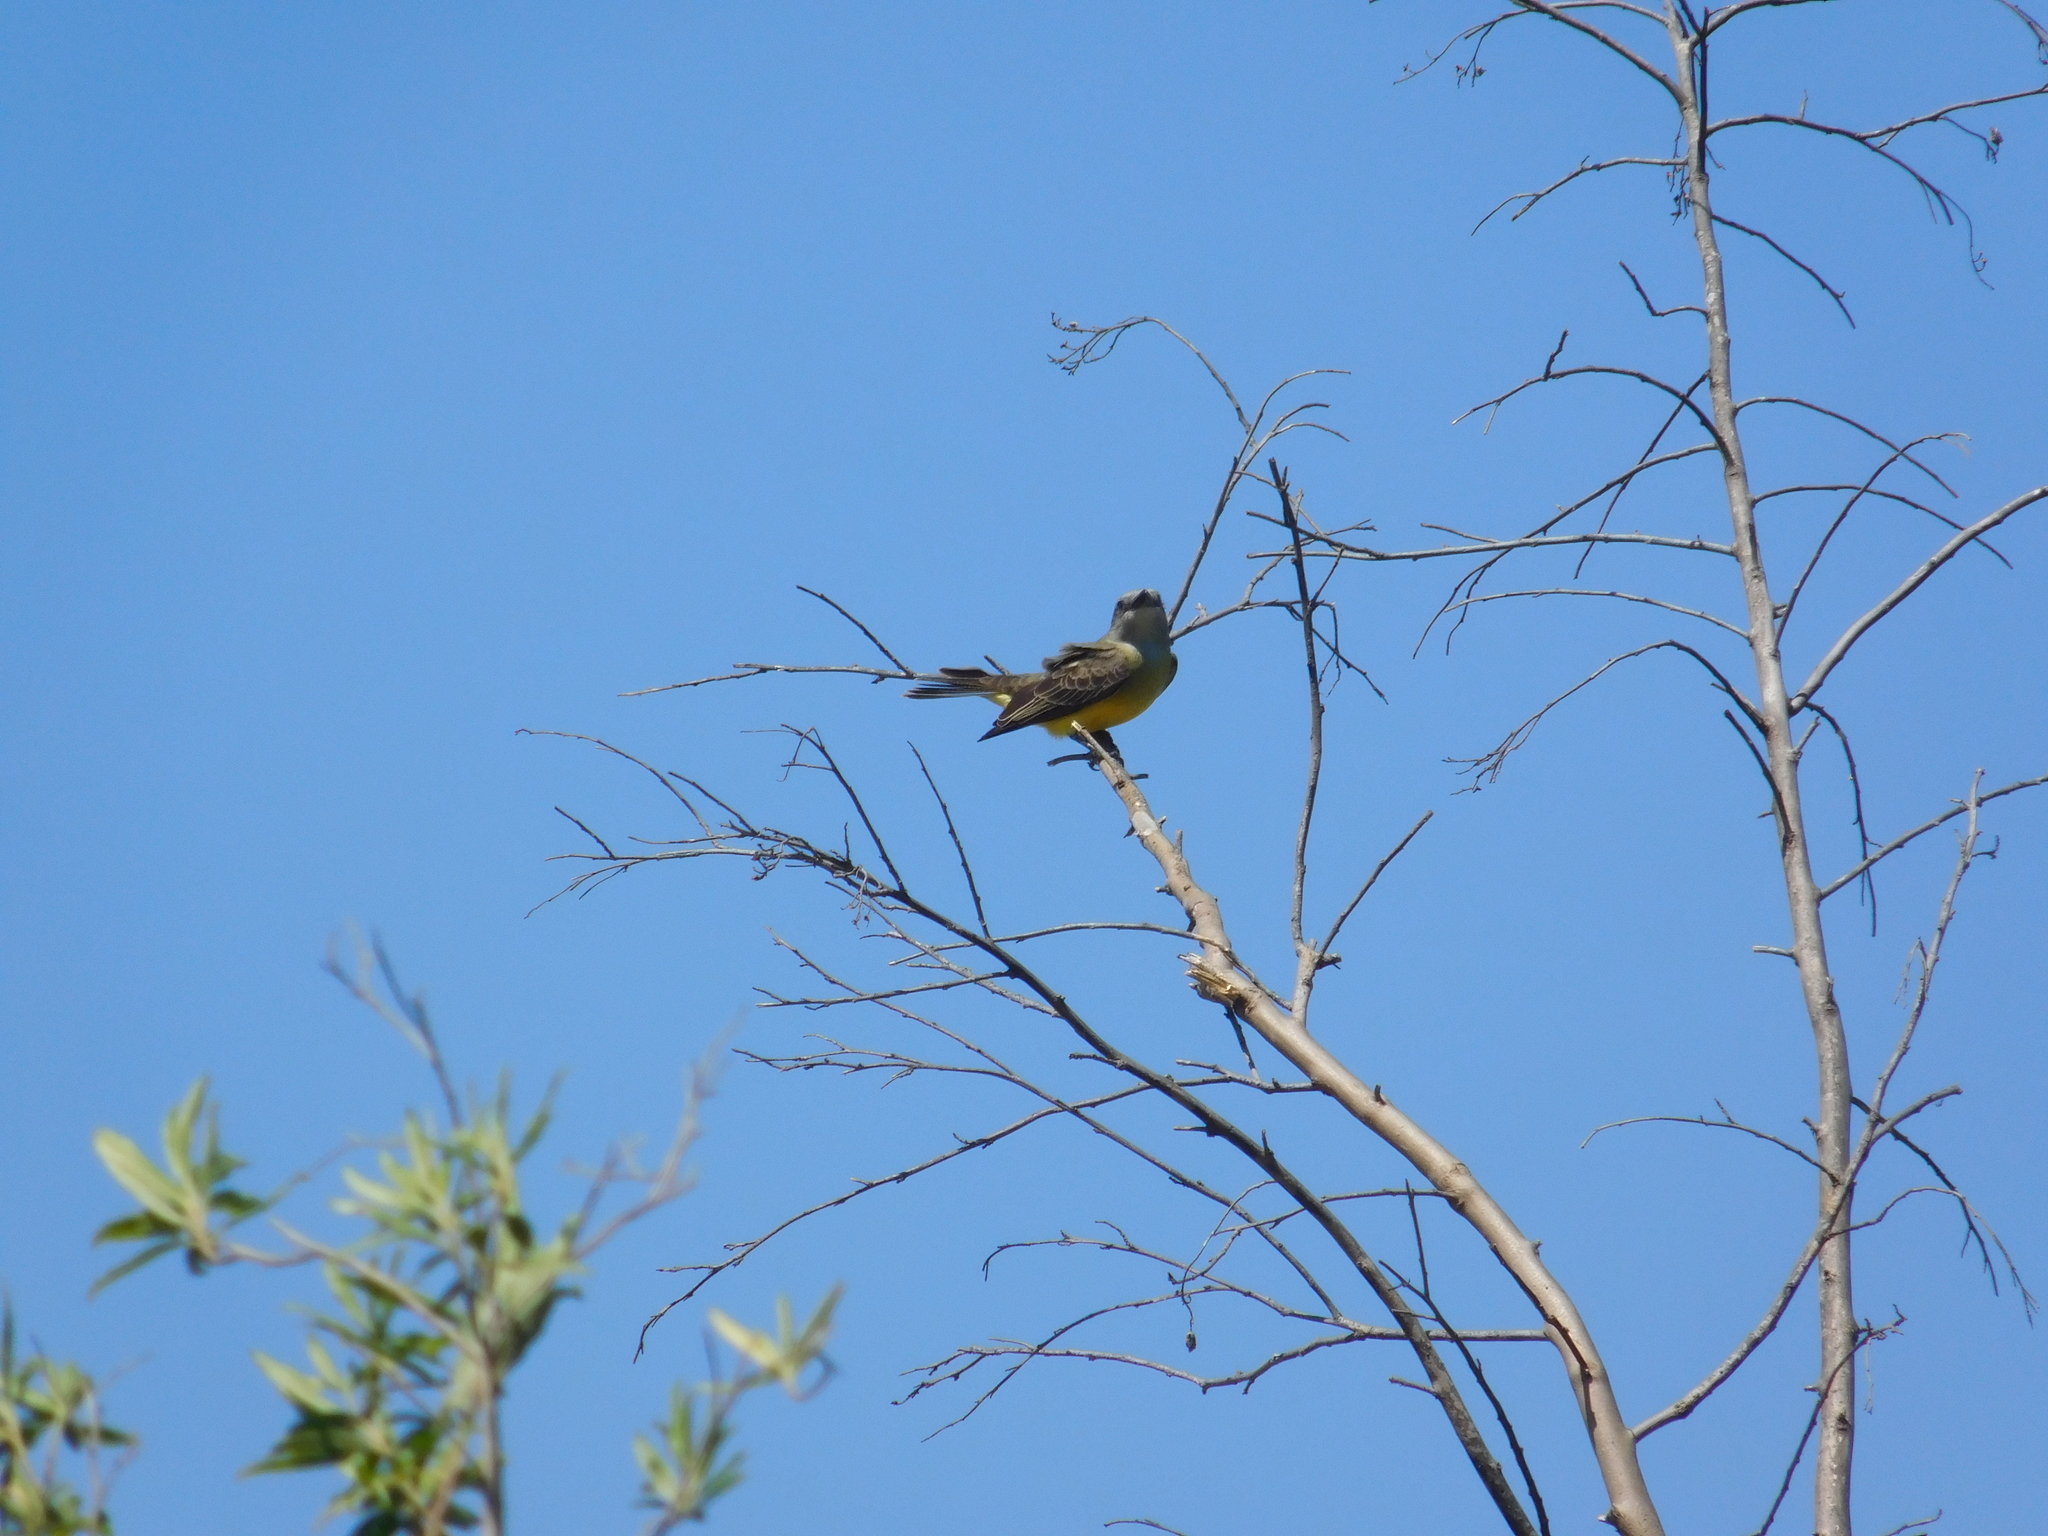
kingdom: Animalia
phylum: Chordata
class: Aves
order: Passeriformes
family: Tyrannidae
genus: Tyrannus
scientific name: Tyrannus melancholicus
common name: Tropical kingbird
